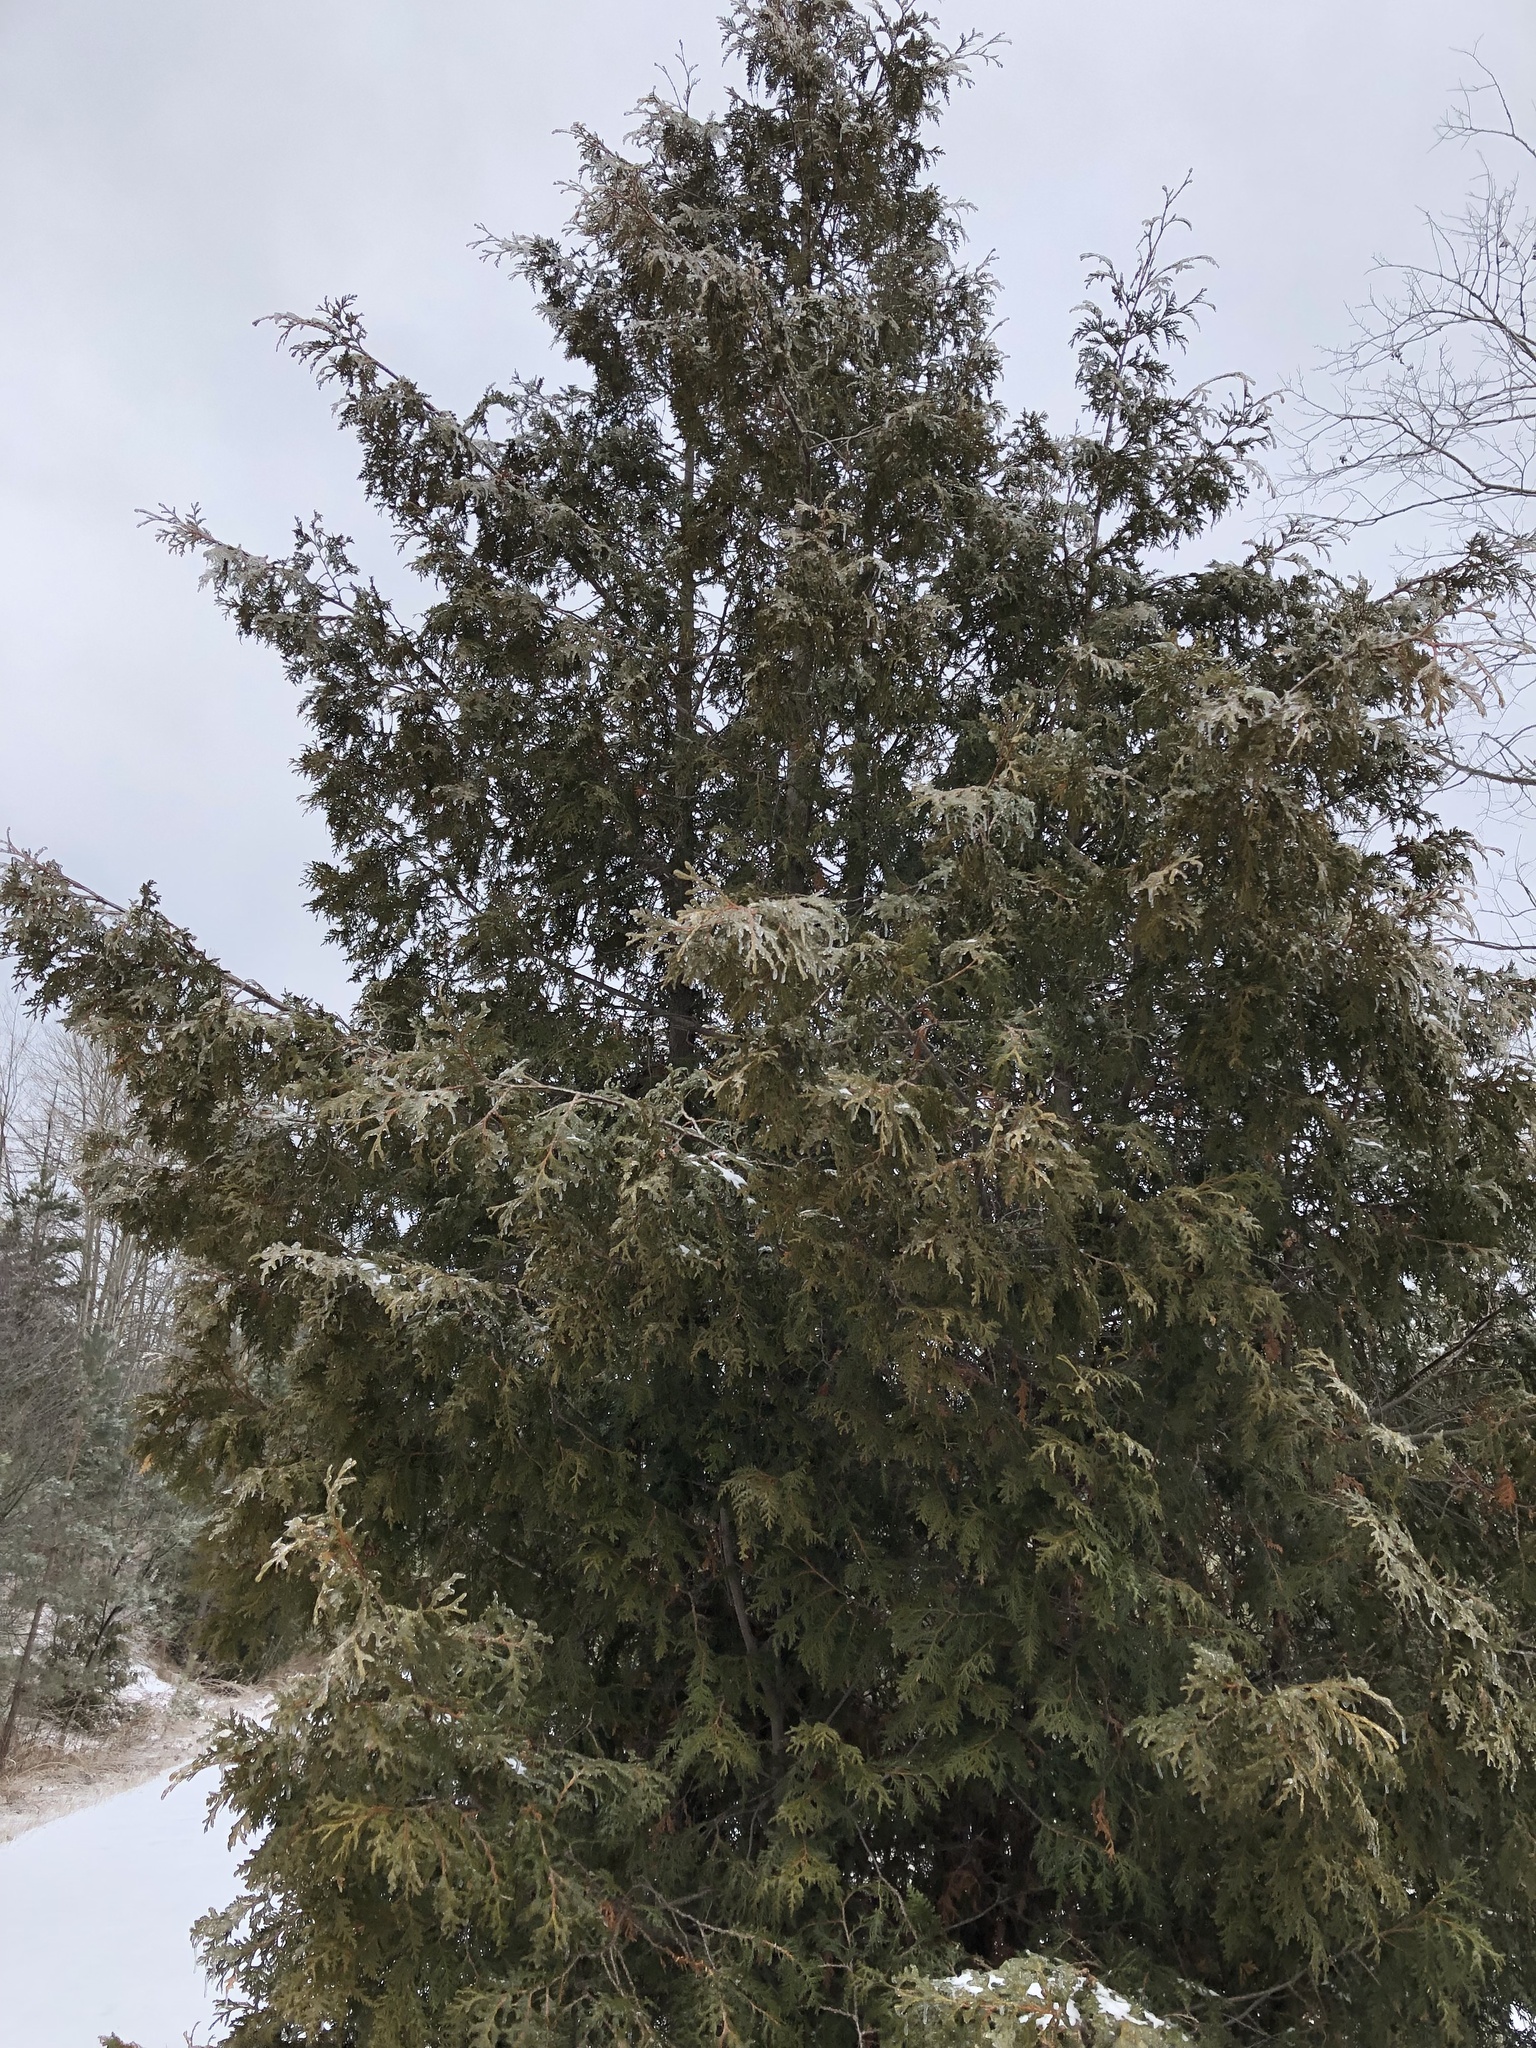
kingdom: Plantae
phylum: Tracheophyta
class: Pinopsida
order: Pinales
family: Cupressaceae
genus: Thuja
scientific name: Thuja occidentalis
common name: Northern white-cedar
